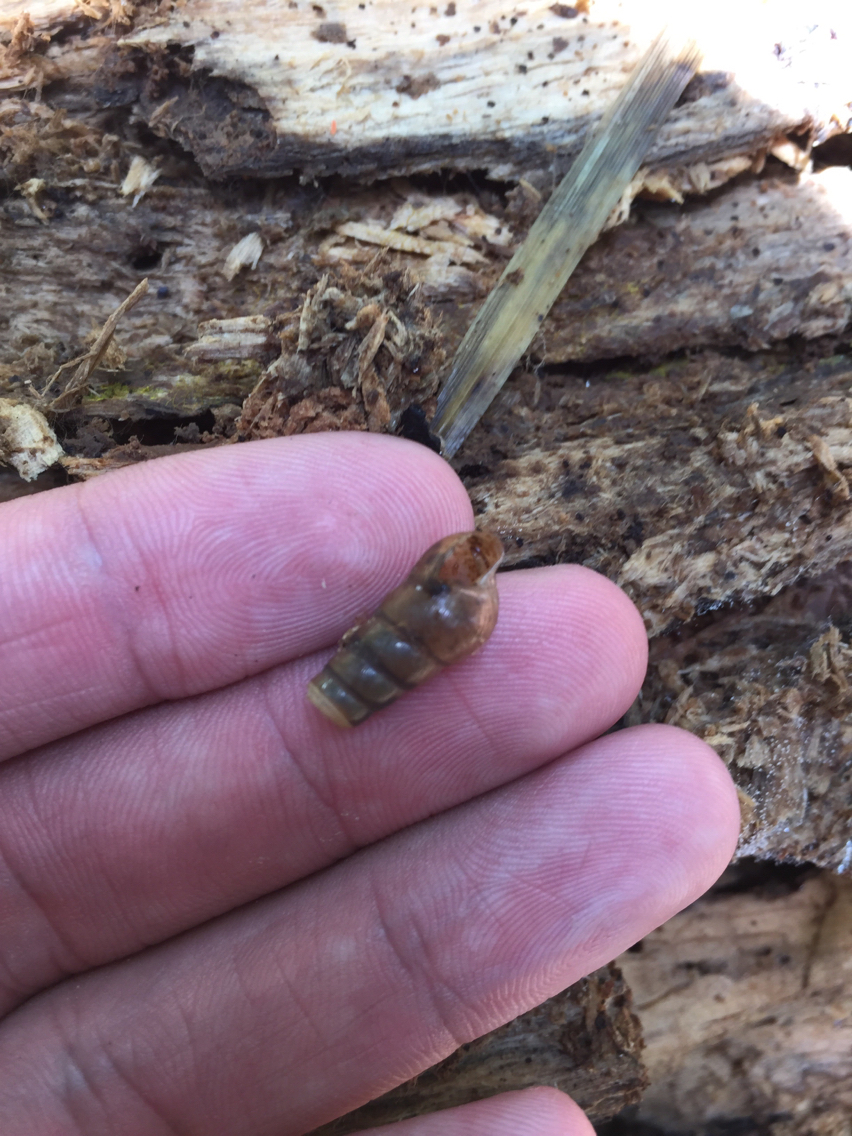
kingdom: Animalia
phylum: Mollusca
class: Gastropoda
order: Stylommatophora
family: Achatinidae
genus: Rumina
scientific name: Rumina decollata
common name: Decollate snail
